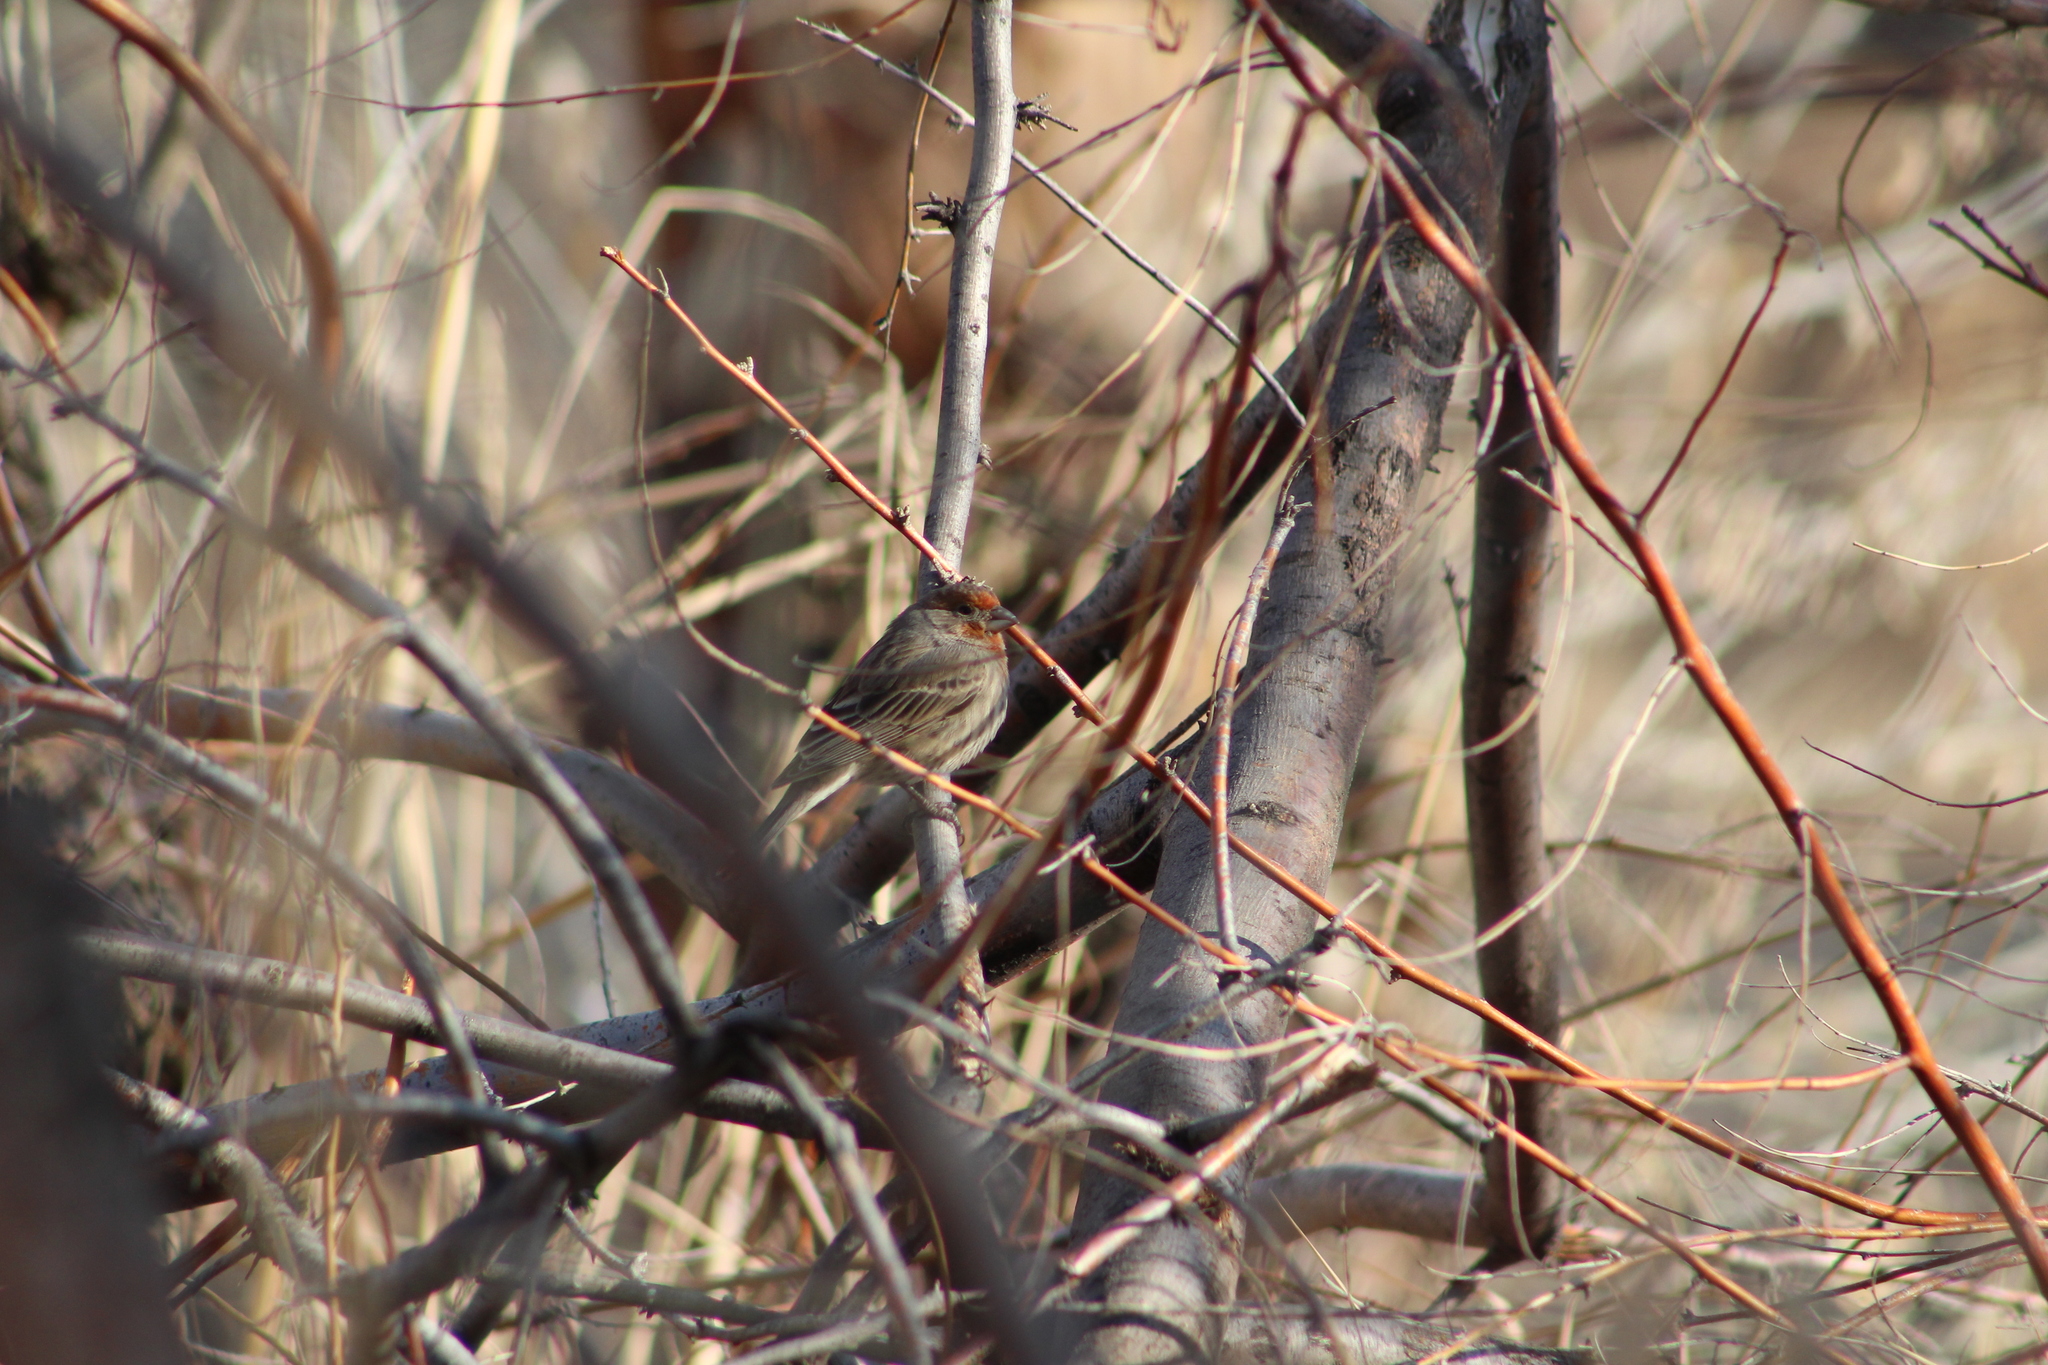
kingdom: Animalia
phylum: Chordata
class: Aves
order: Passeriformes
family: Fringillidae
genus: Haemorhous
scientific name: Haemorhous mexicanus
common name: House finch
